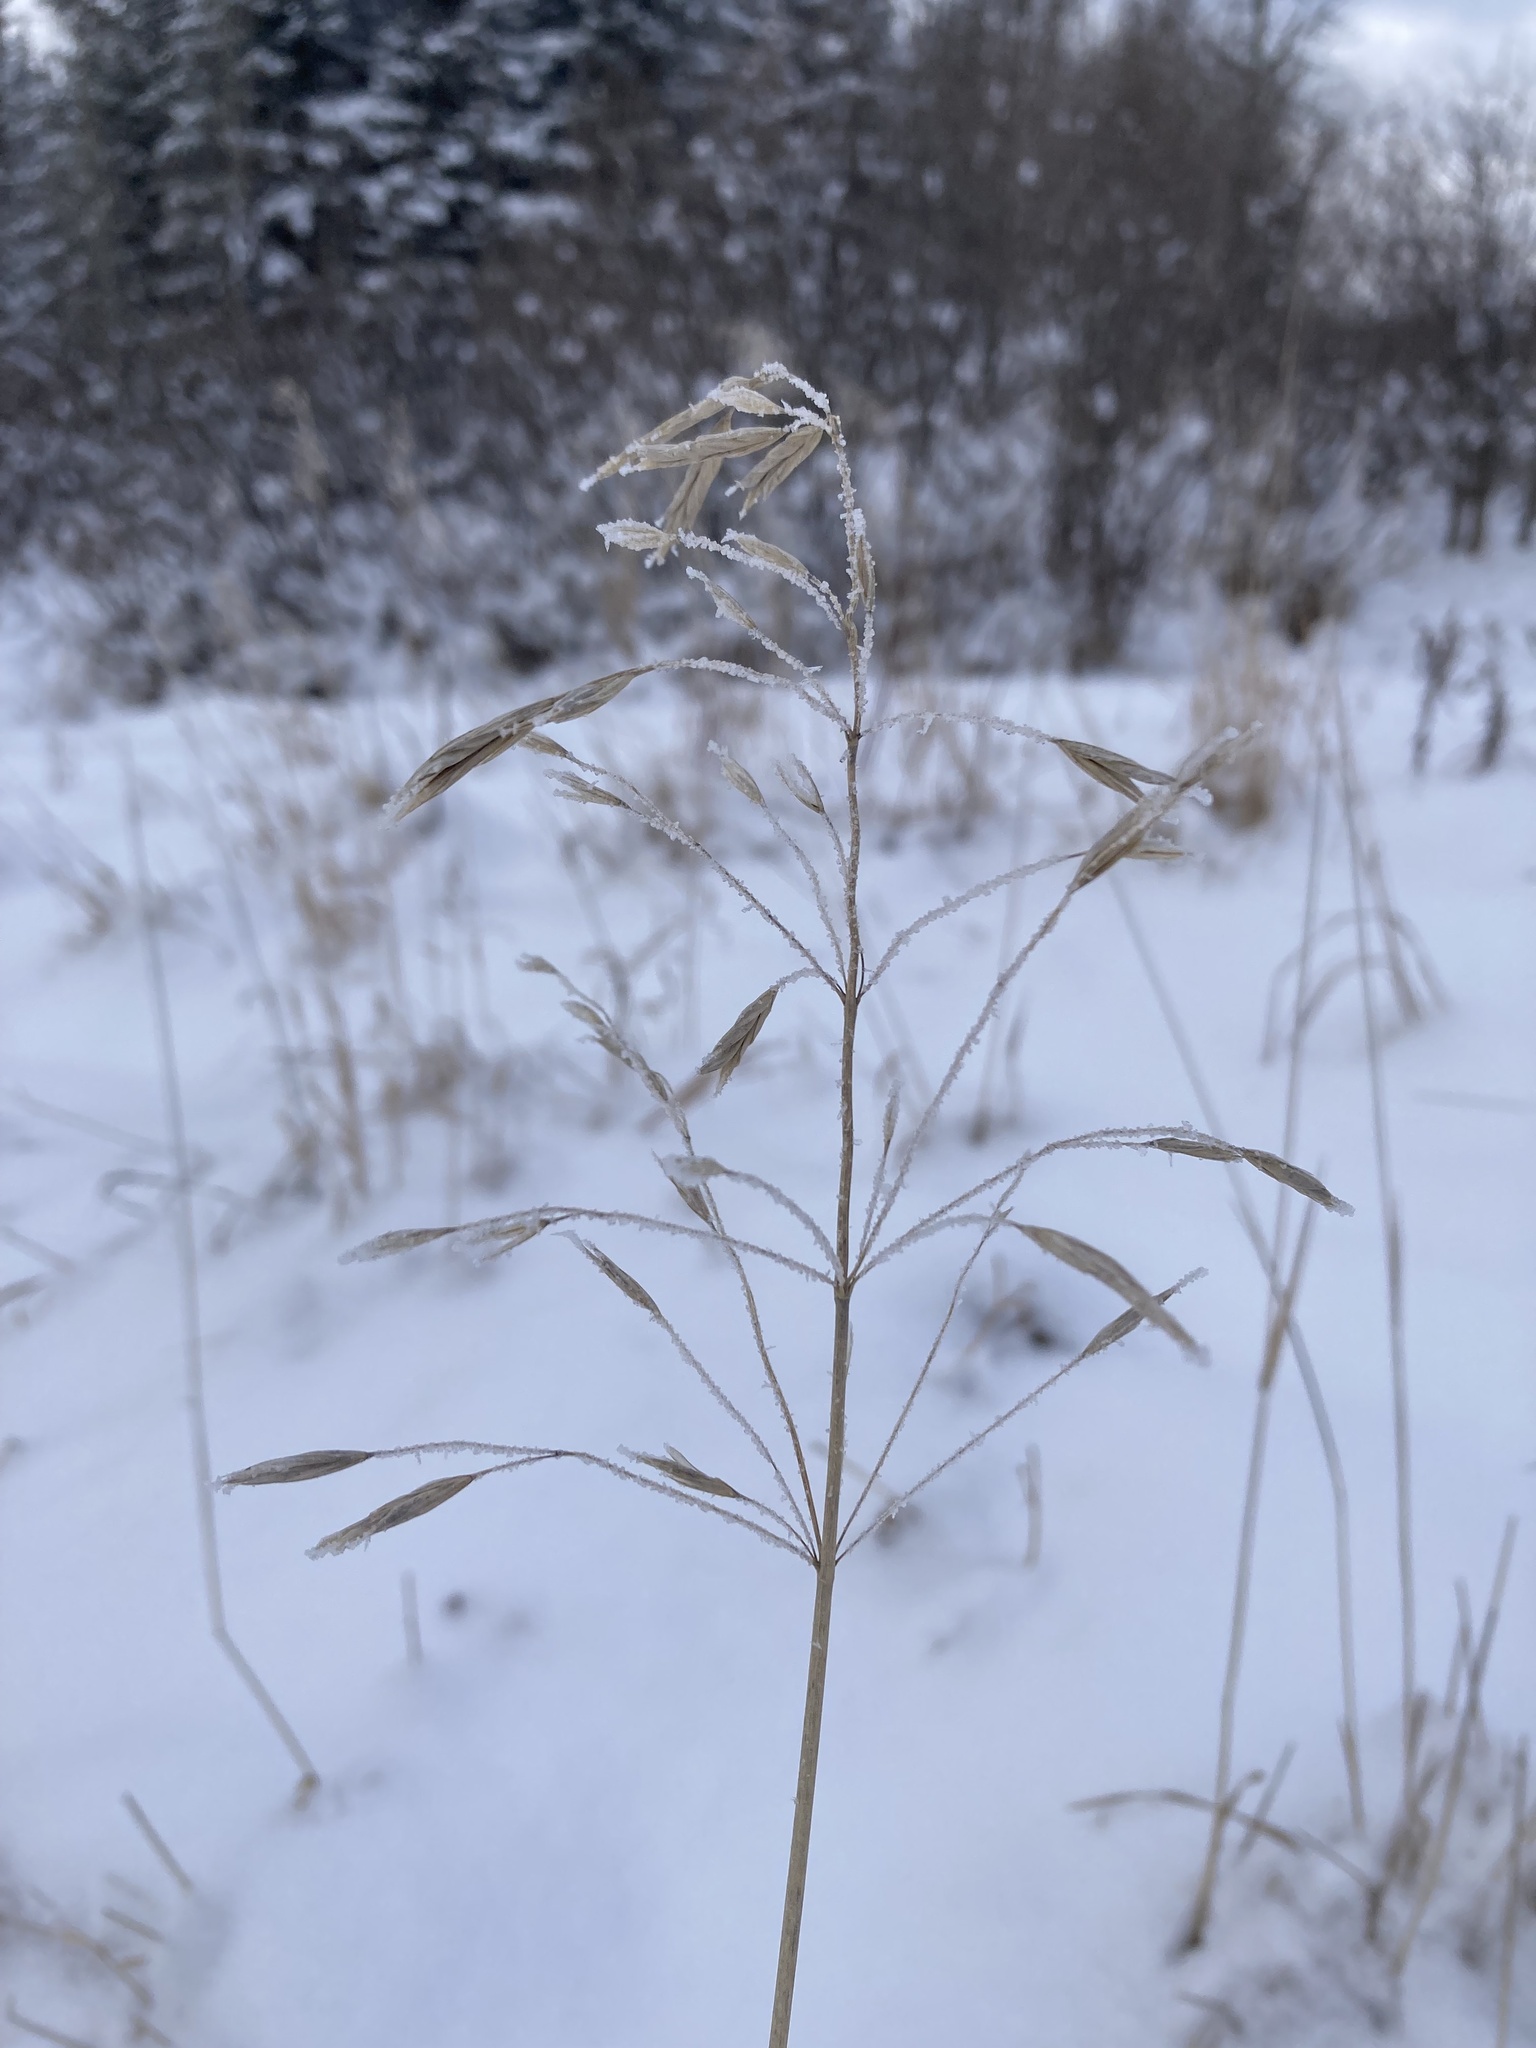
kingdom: Plantae
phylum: Tracheophyta
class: Liliopsida
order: Poales
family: Poaceae
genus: Bromus
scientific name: Bromus inermis
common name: Smooth brome
